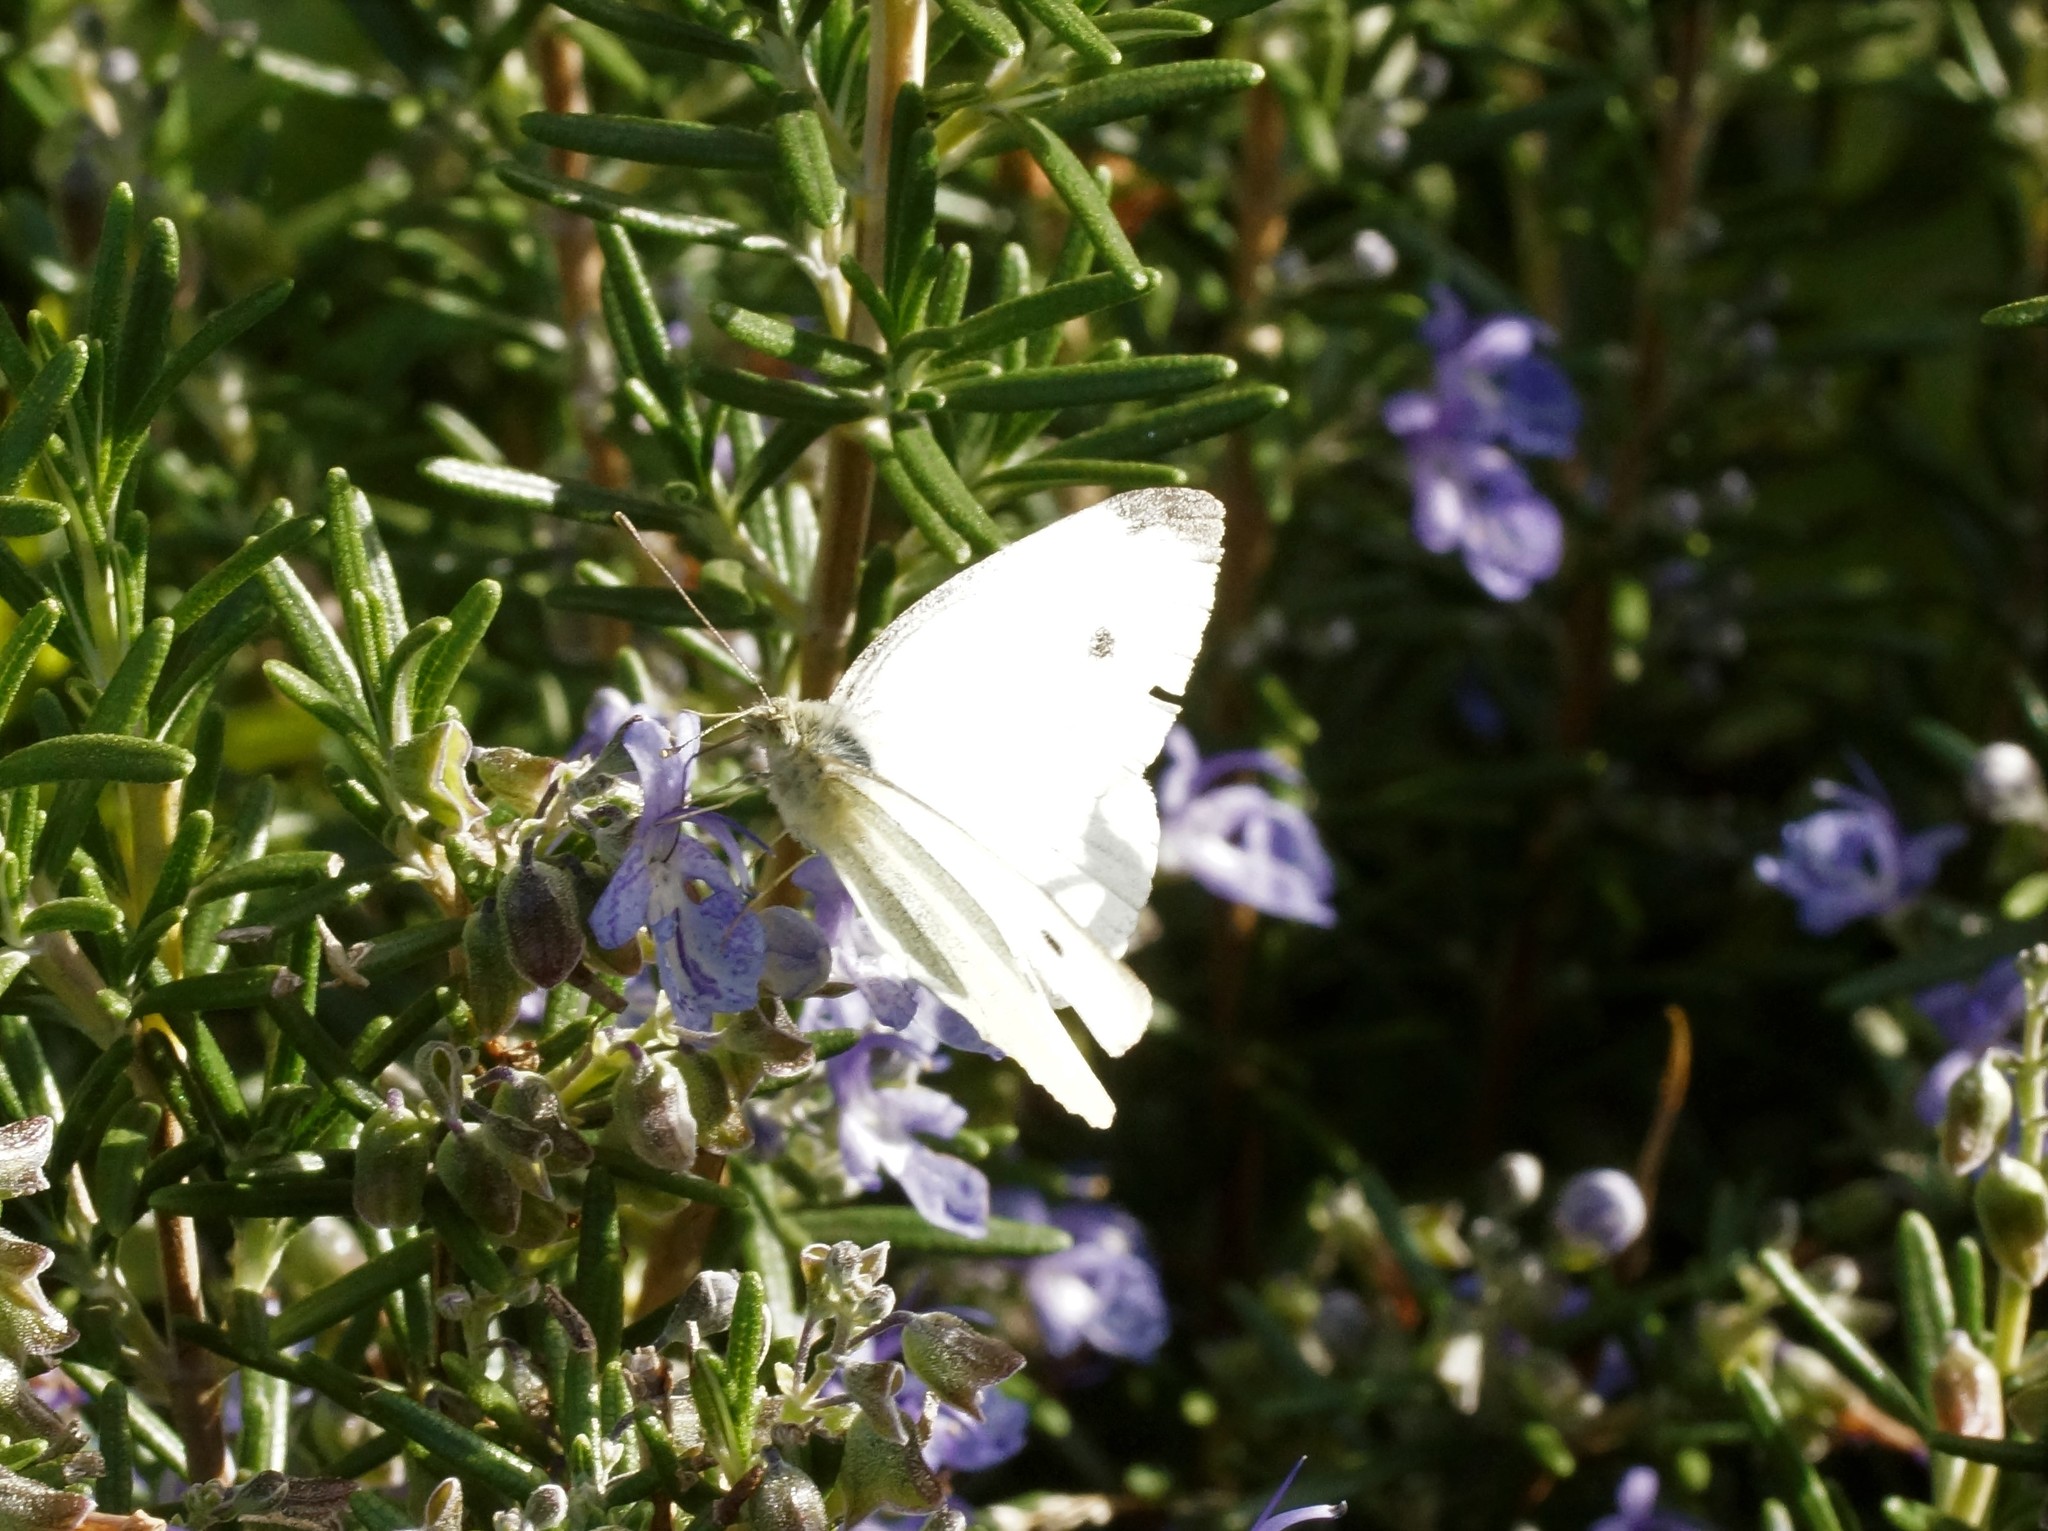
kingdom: Animalia
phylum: Arthropoda
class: Insecta
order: Lepidoptera
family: Pieridae
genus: Pieris
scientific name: Pieris rapae
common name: Small white
